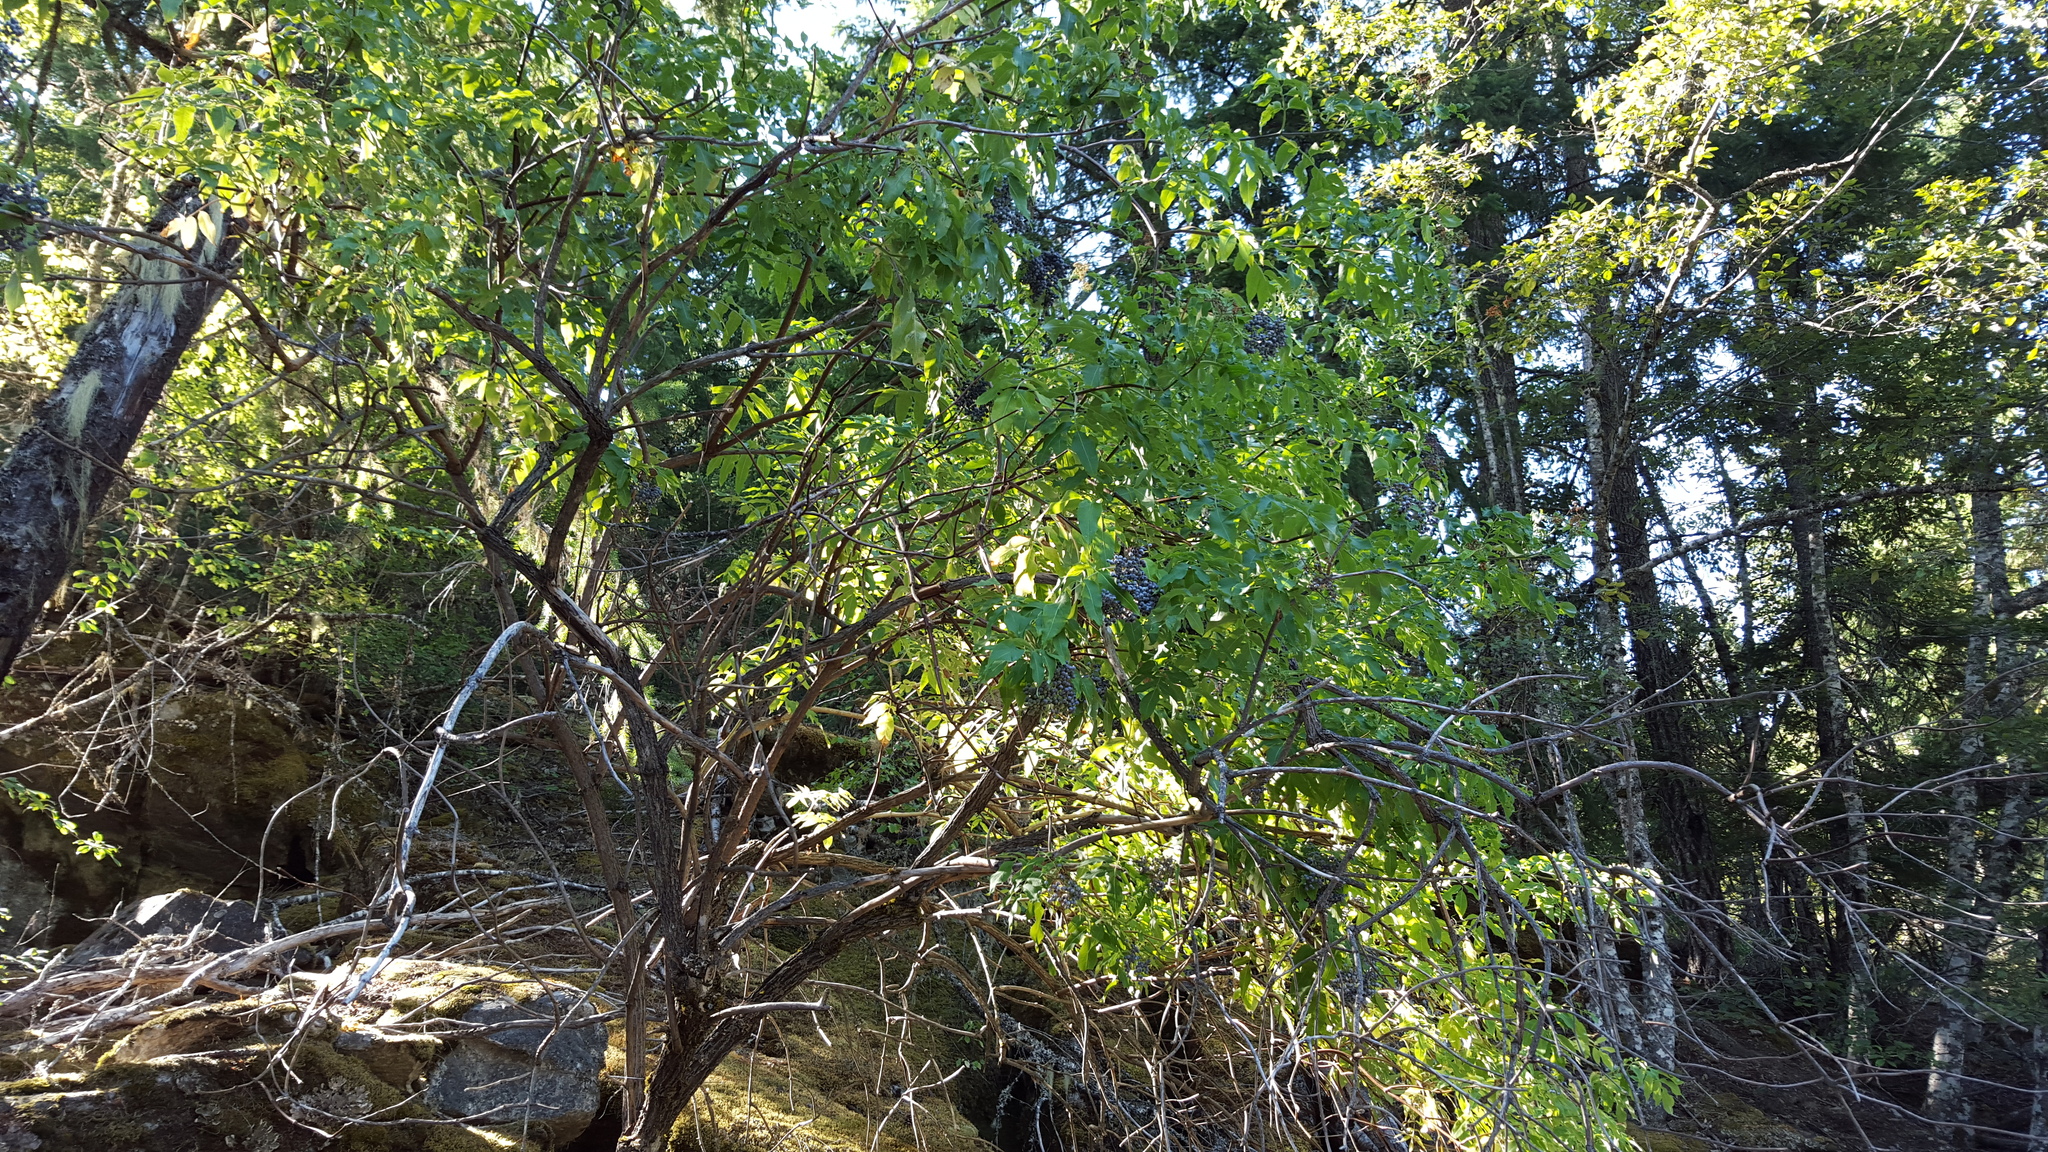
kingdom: Plantae
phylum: Tracheophyta
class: Magnoliopsida
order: Dipsacales
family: Viburnaceae
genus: Sambucus
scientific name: Sambucus cerulea
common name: Blue elder
